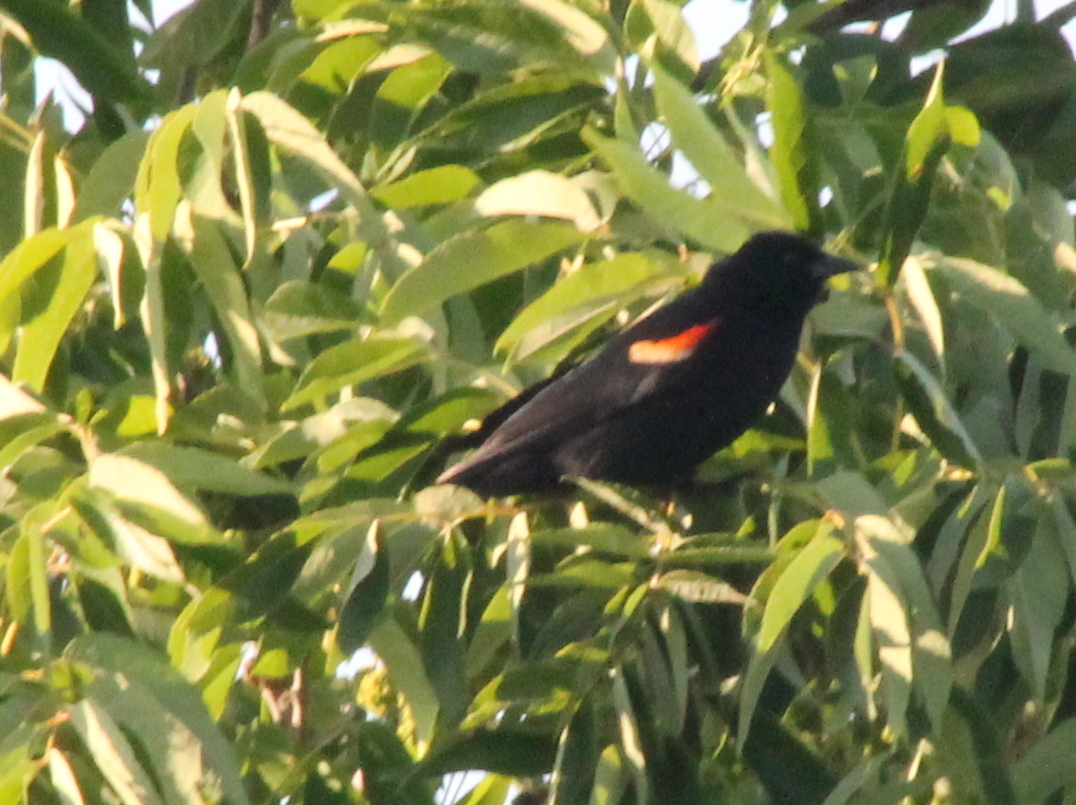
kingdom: Animalia
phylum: Chordata
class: Aves
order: Passeriformes
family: Icteridae
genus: Agelaius
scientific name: Agelaius phoeniceus
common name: Red-winged blackbird
